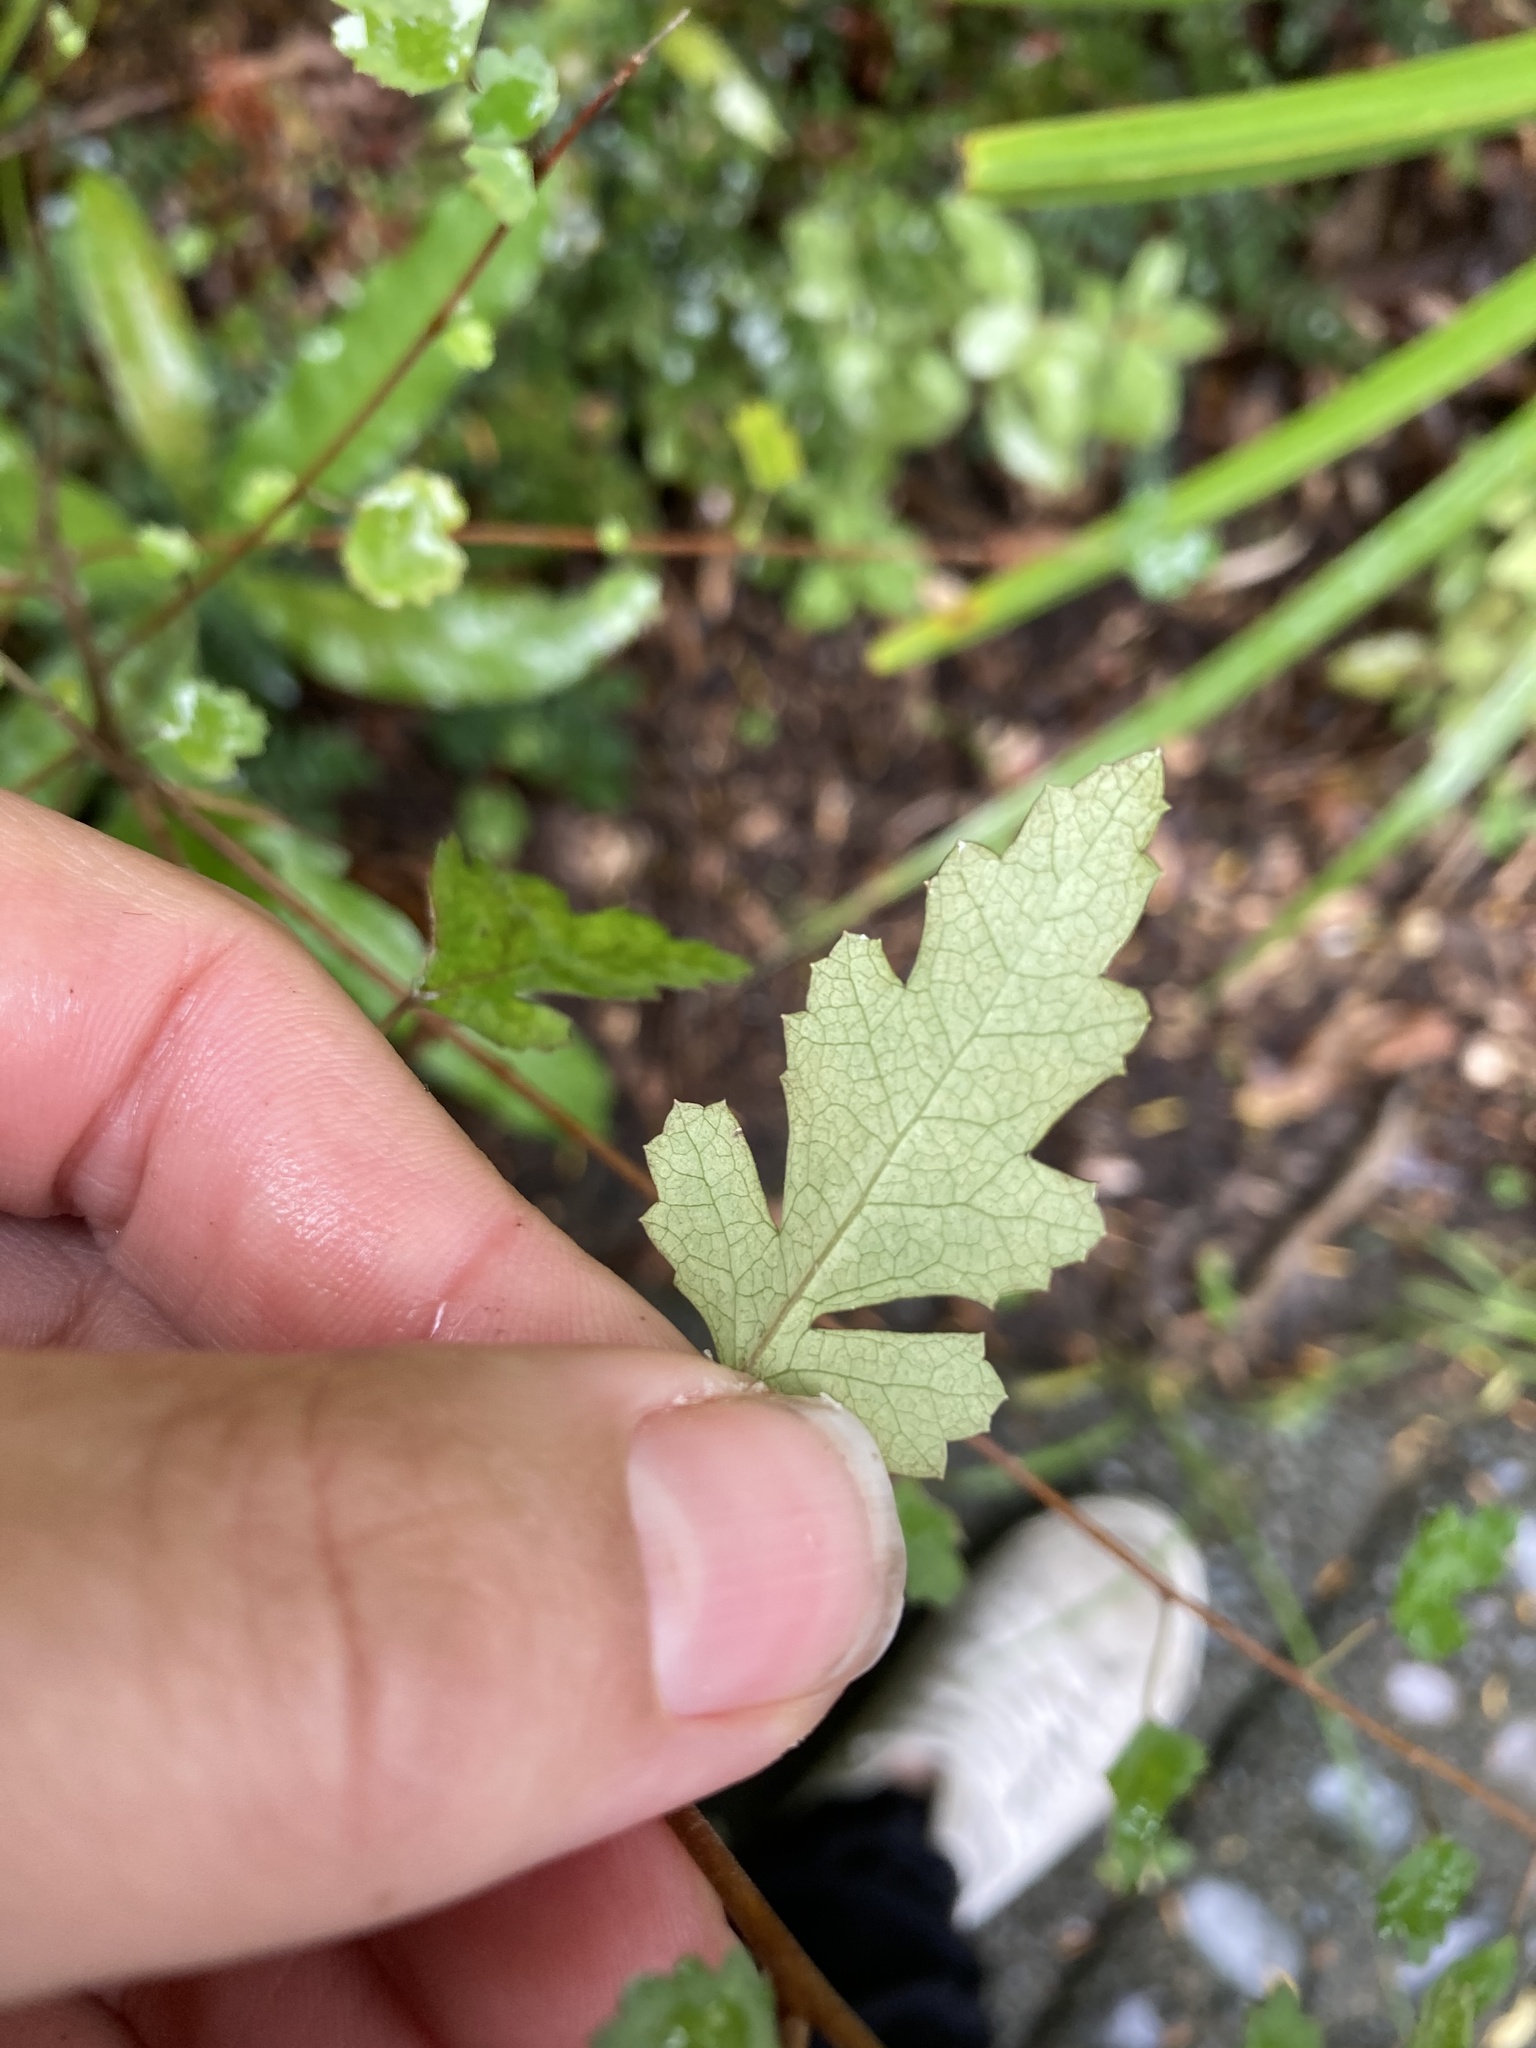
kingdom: Plantae
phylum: Tracheophyta
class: Magnoliopsida
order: Malvales
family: Malvaceae
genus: Hoheria
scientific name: Hoheria sexstylosa
